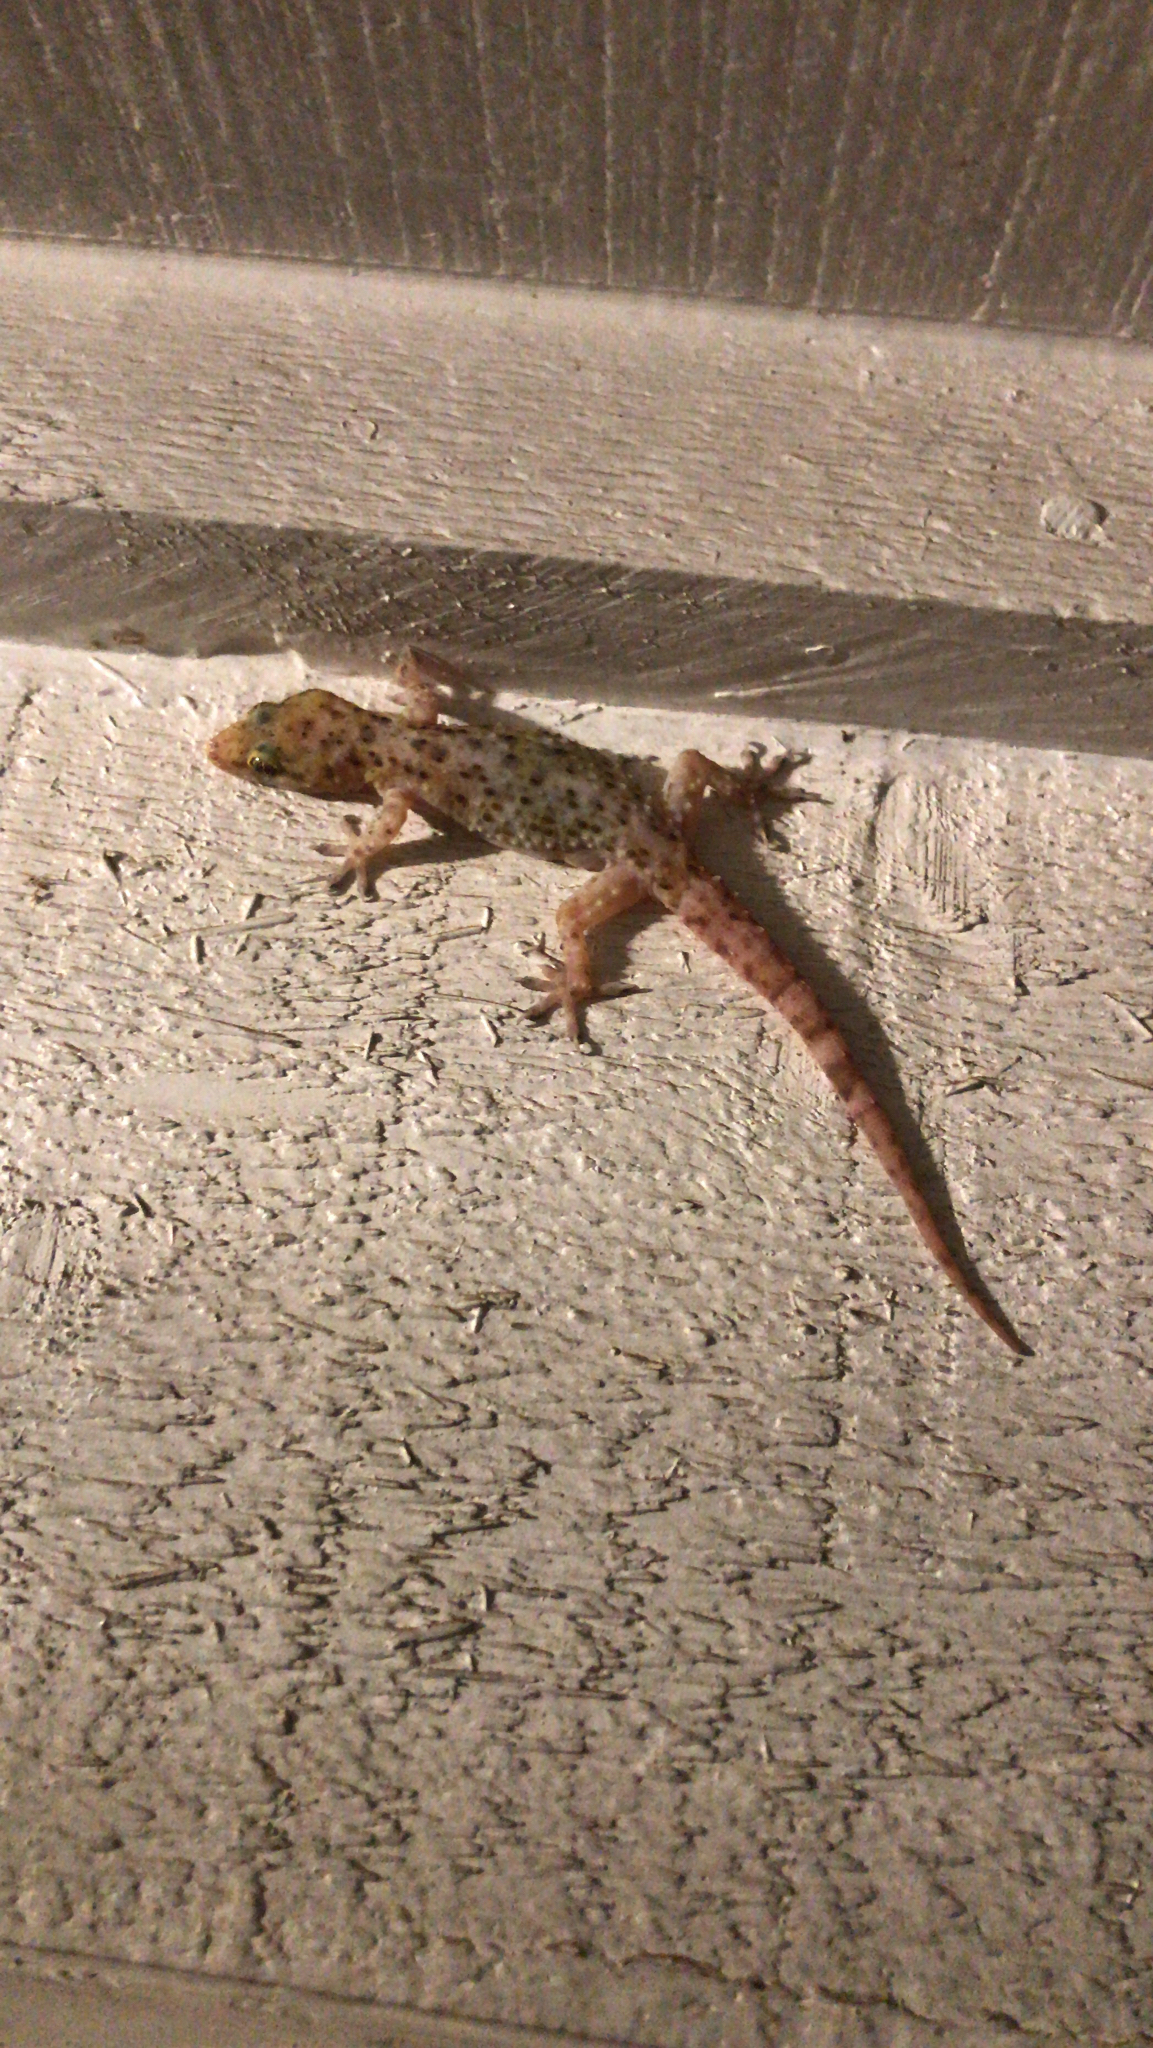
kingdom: Animalia
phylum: Chordata
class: Squamata
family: Gekkonidae
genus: Hemidactylus
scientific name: Hemidactylus turcicus
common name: Turkish gecko
